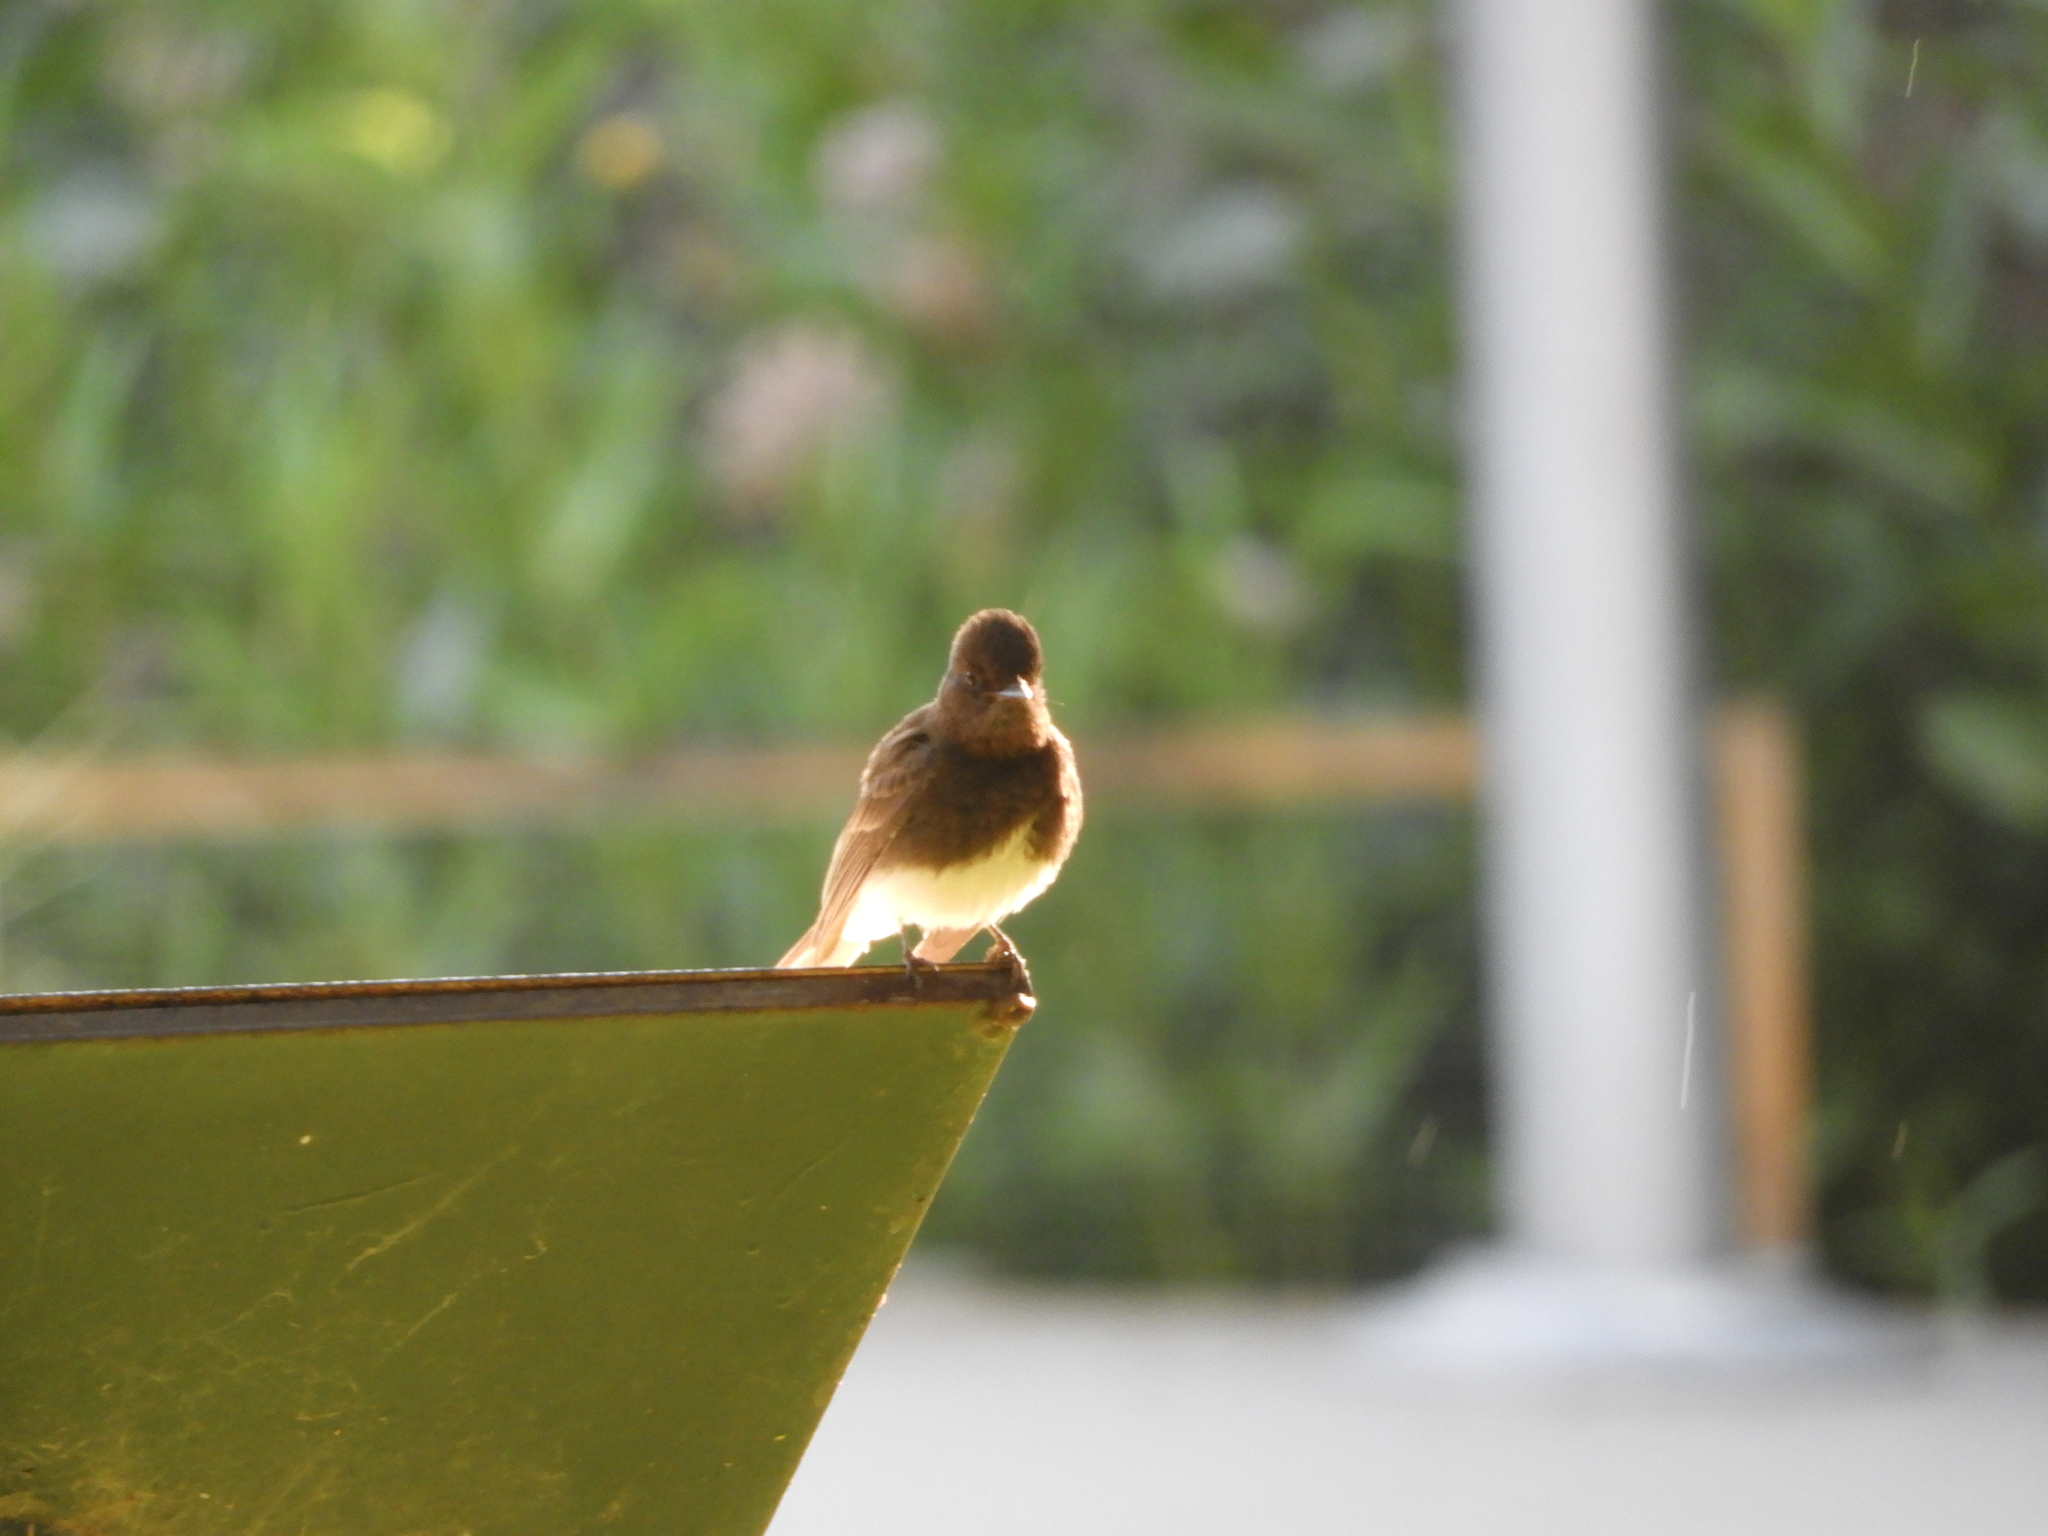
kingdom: Animalia
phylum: Chordata
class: Aves
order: Passeriformes
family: Tyrannidae
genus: Sayornis
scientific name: Sayornis nigricans
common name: Black phoebe
